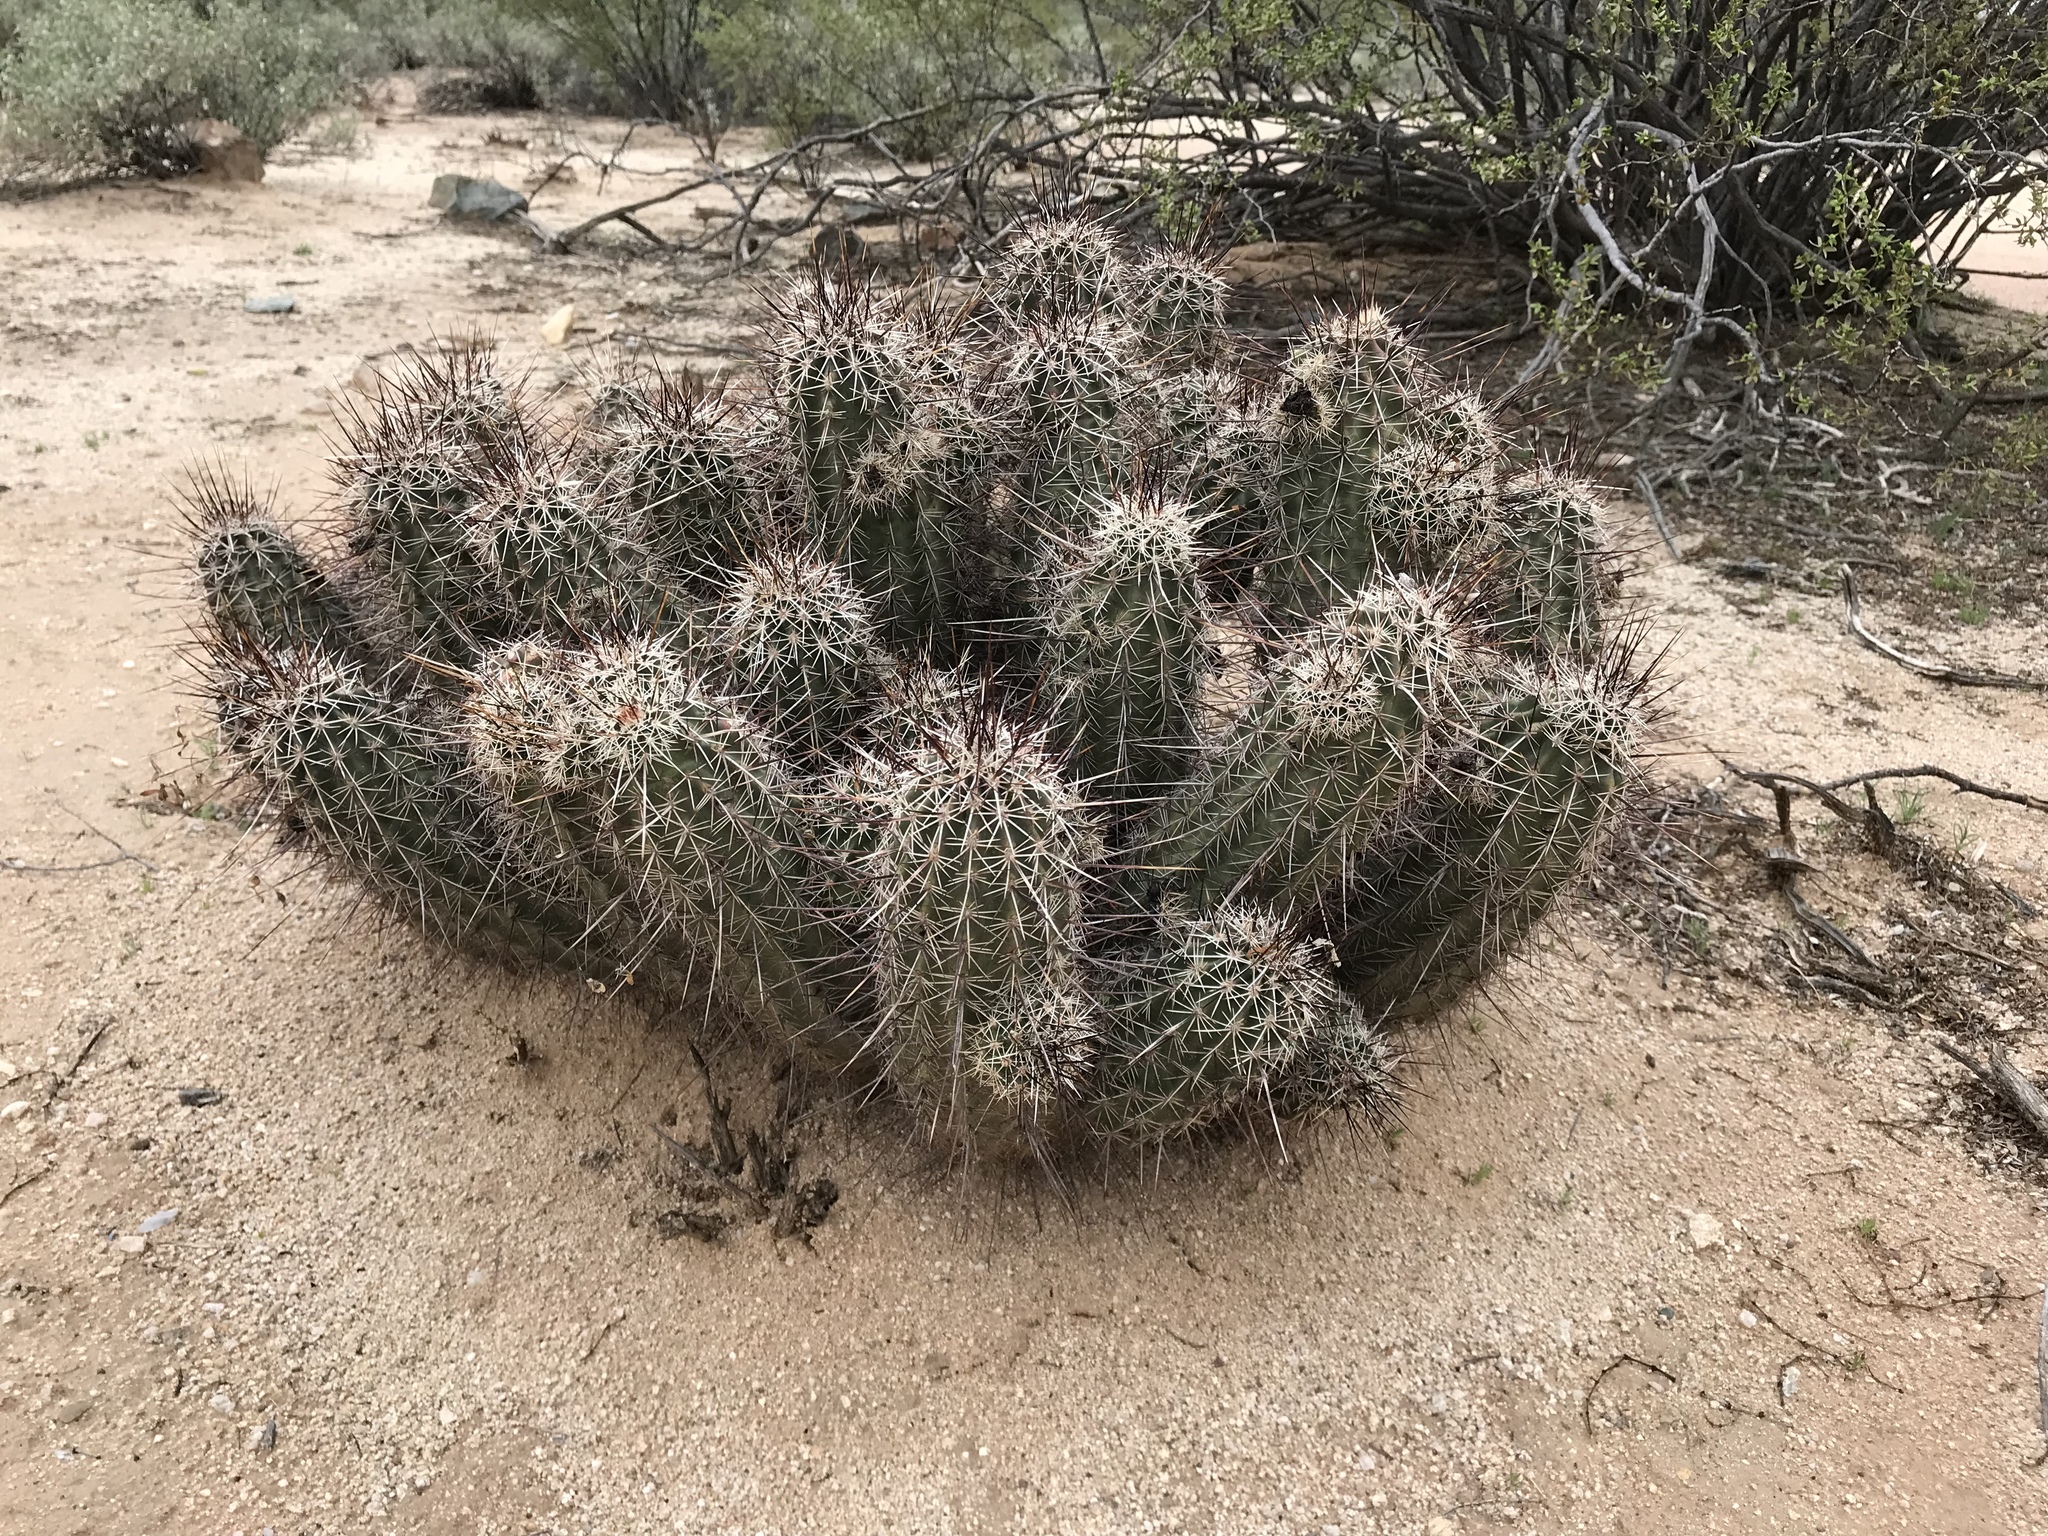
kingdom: Plantae
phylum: Tracheophyta
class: Magnoliopsida
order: Caryophyllales
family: Cactaceae
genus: Echinocereus
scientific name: Echinocereus fasciculatus
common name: Bundle hedgehog
